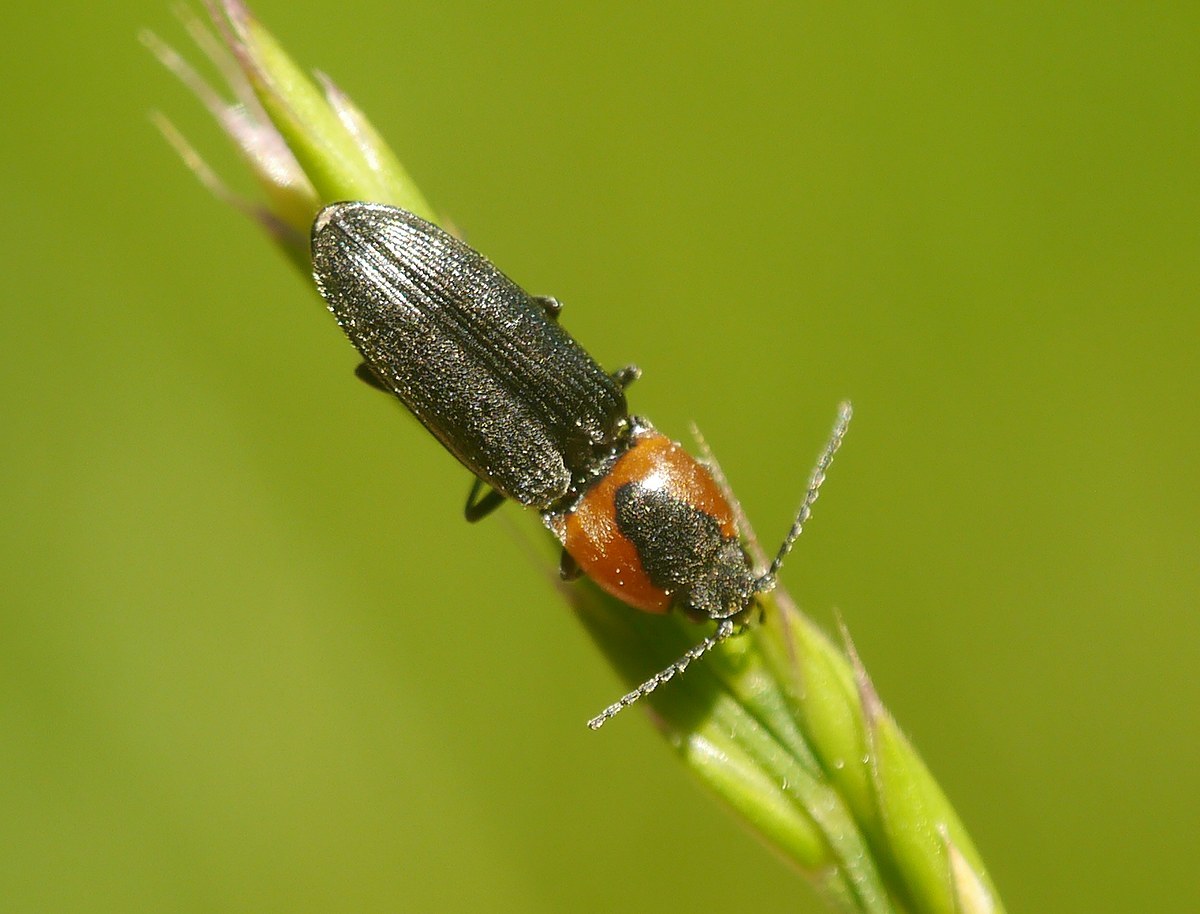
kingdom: Animalia
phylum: Arthropoda
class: Insecta
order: Coleoptera
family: Elateridae
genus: Cardiophorus
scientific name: Cardiophorus discicollis
